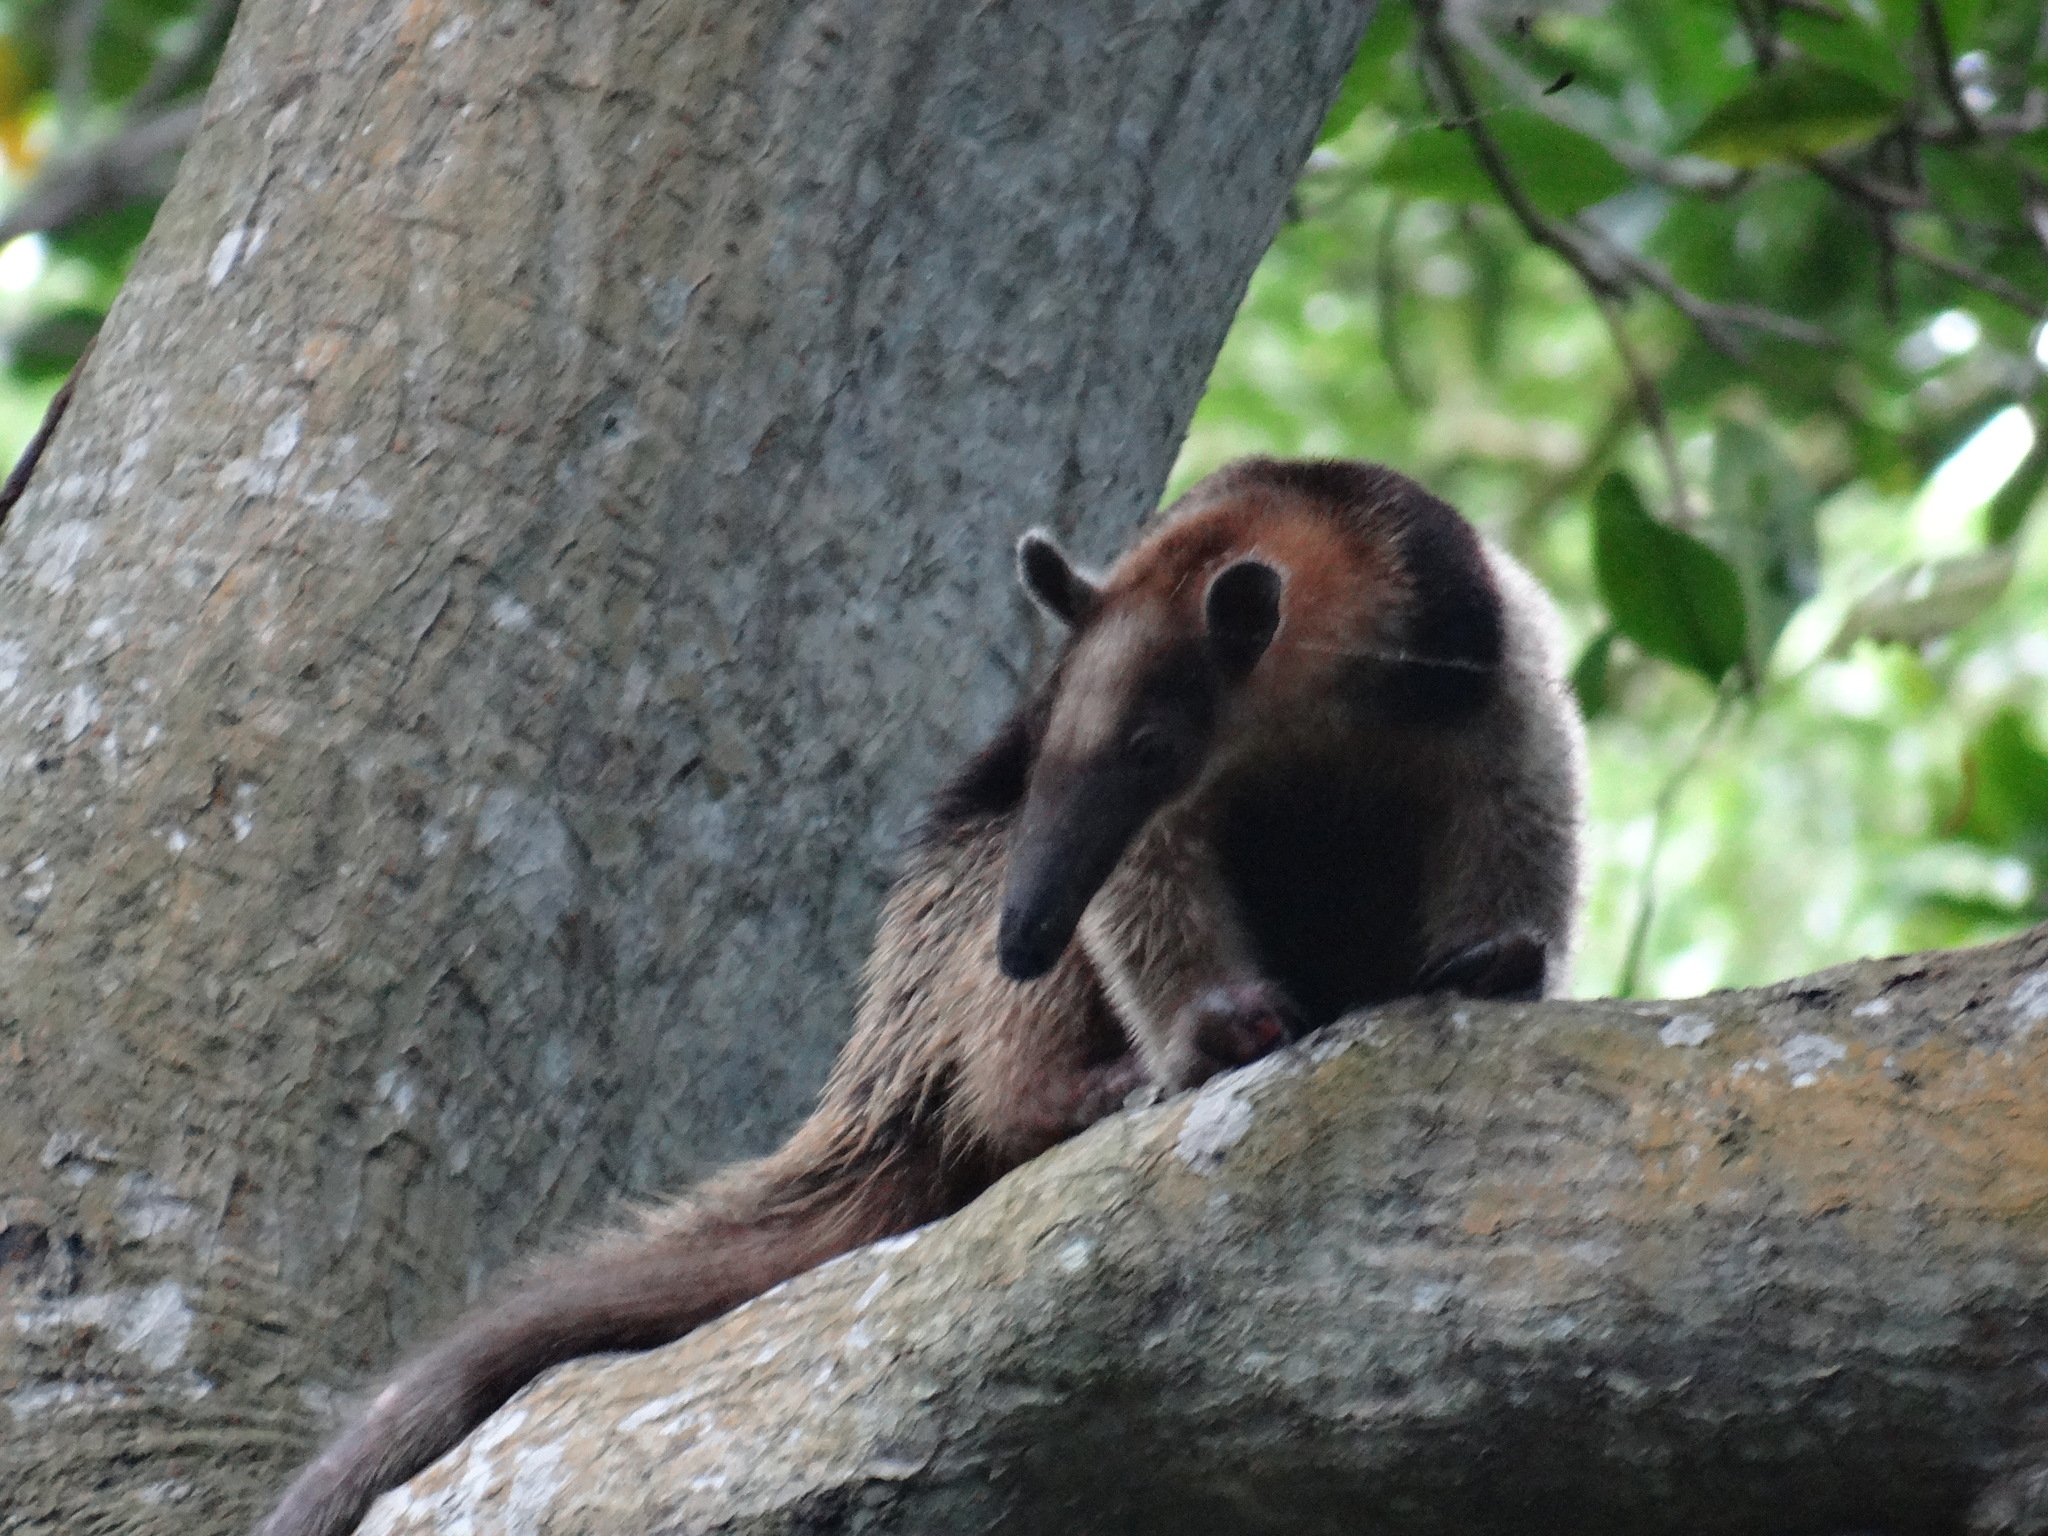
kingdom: Animalia
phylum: Chordata
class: Mammalia
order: Pilosa
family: Myrmecophagidae
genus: Tamandua
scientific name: Tamandua mexicana
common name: Northern tamandua
